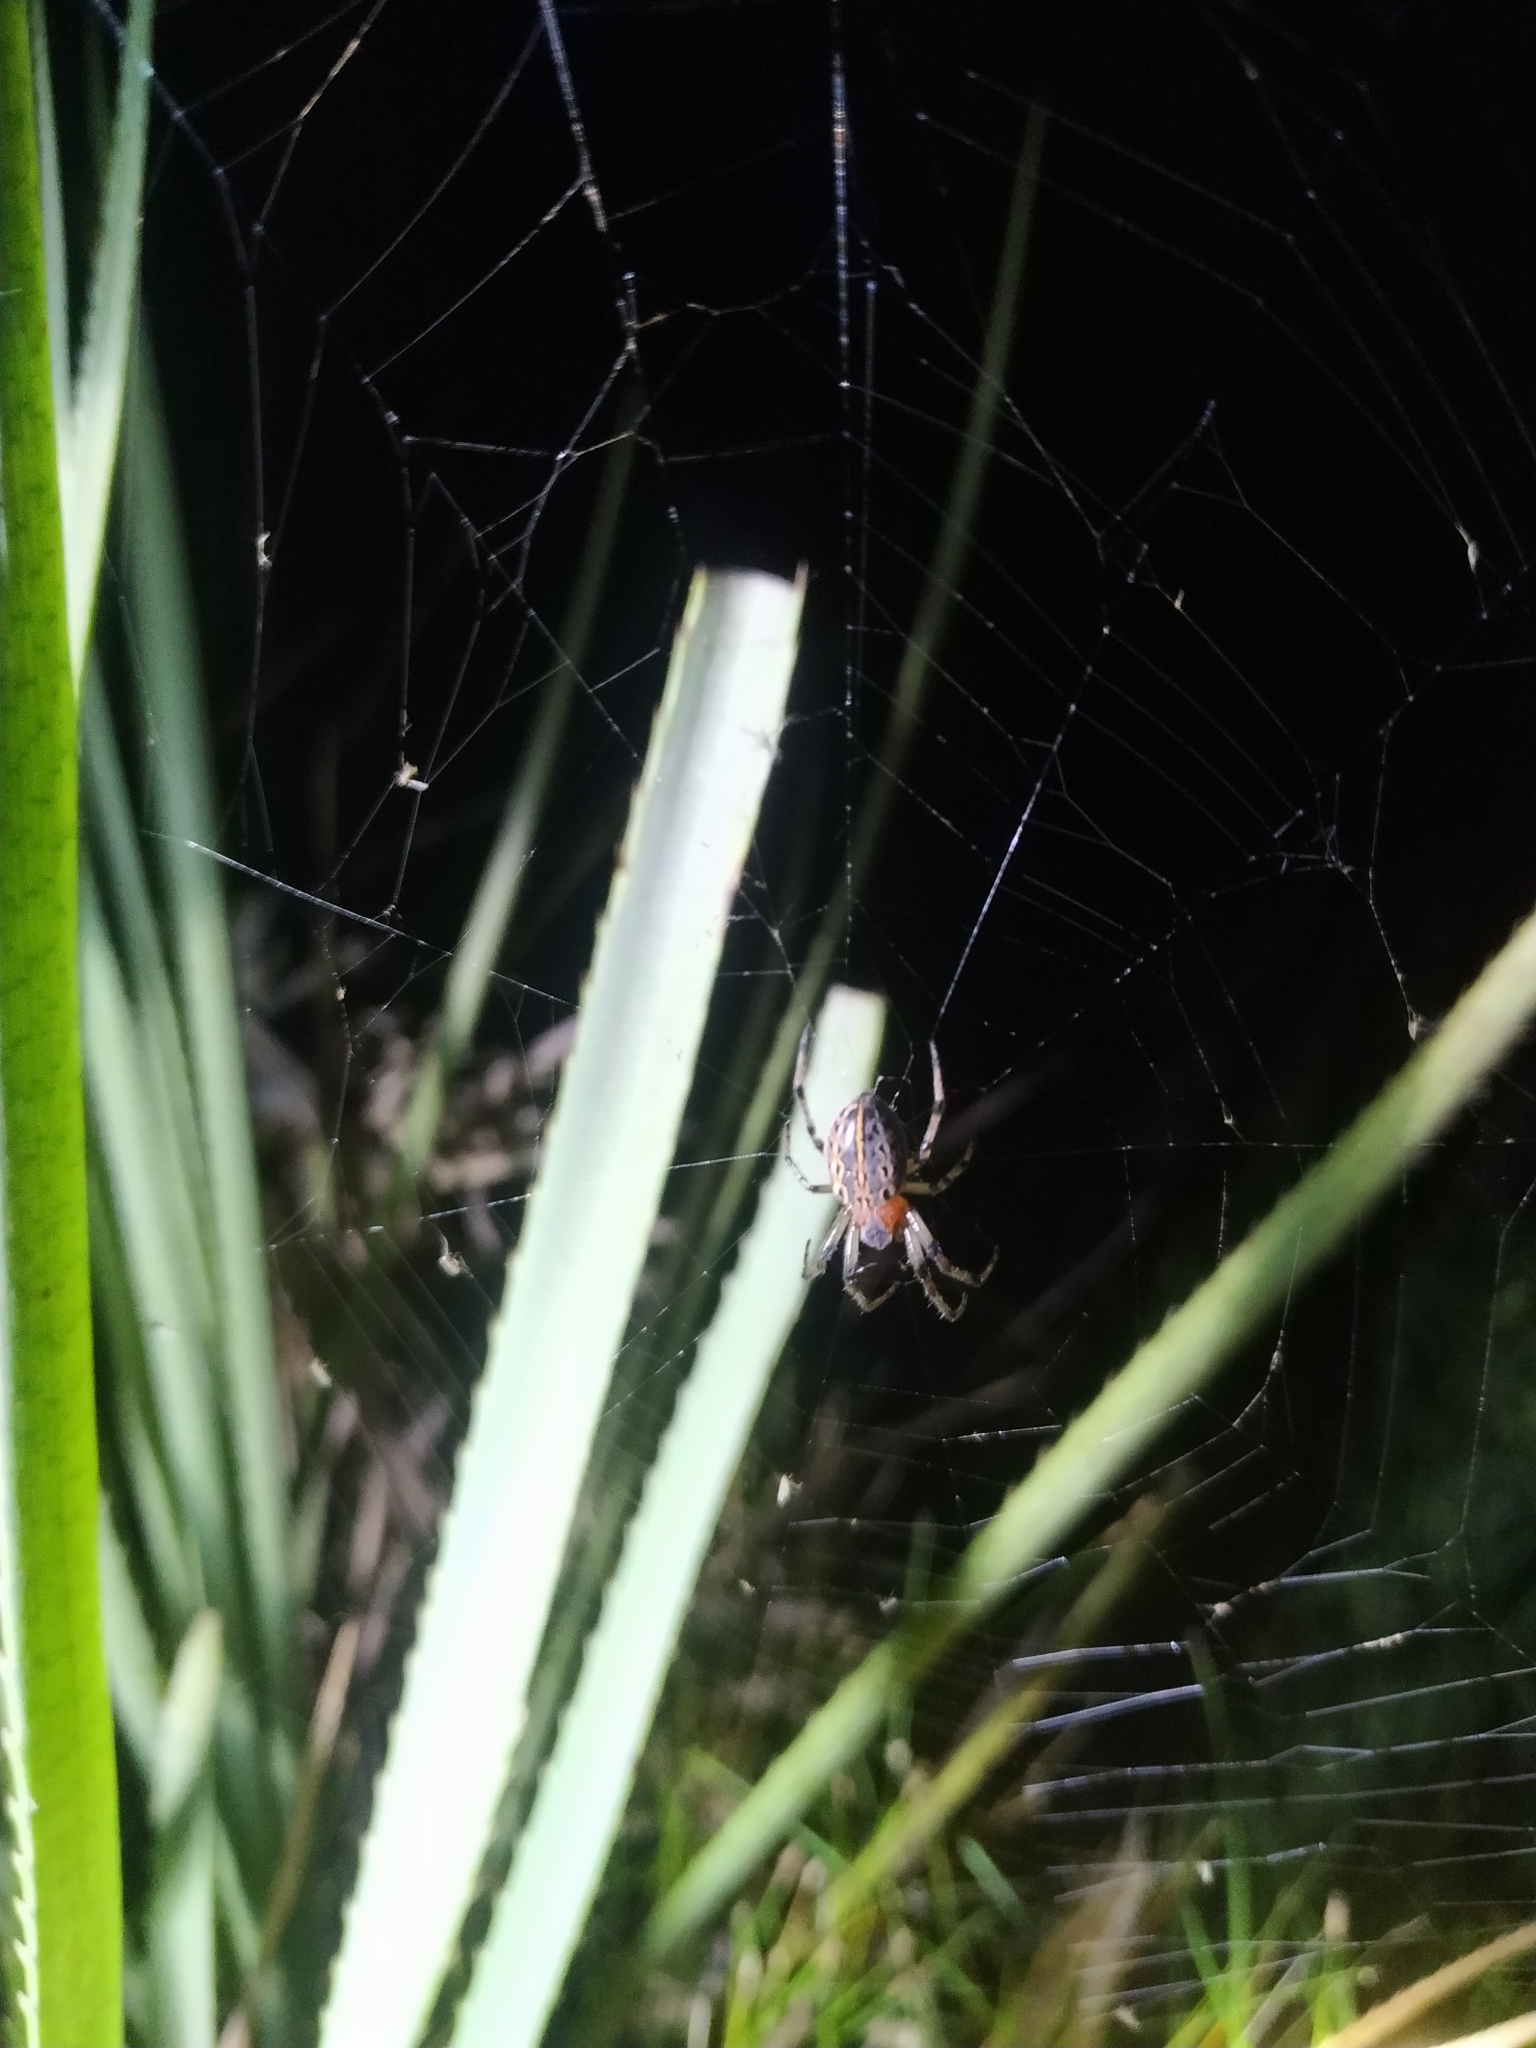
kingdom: Animalia
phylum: Arthropoda
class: Arachnida
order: Araneae
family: Araneidae
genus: Alpaida
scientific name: Alpaida veniliae
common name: Orb weavers
